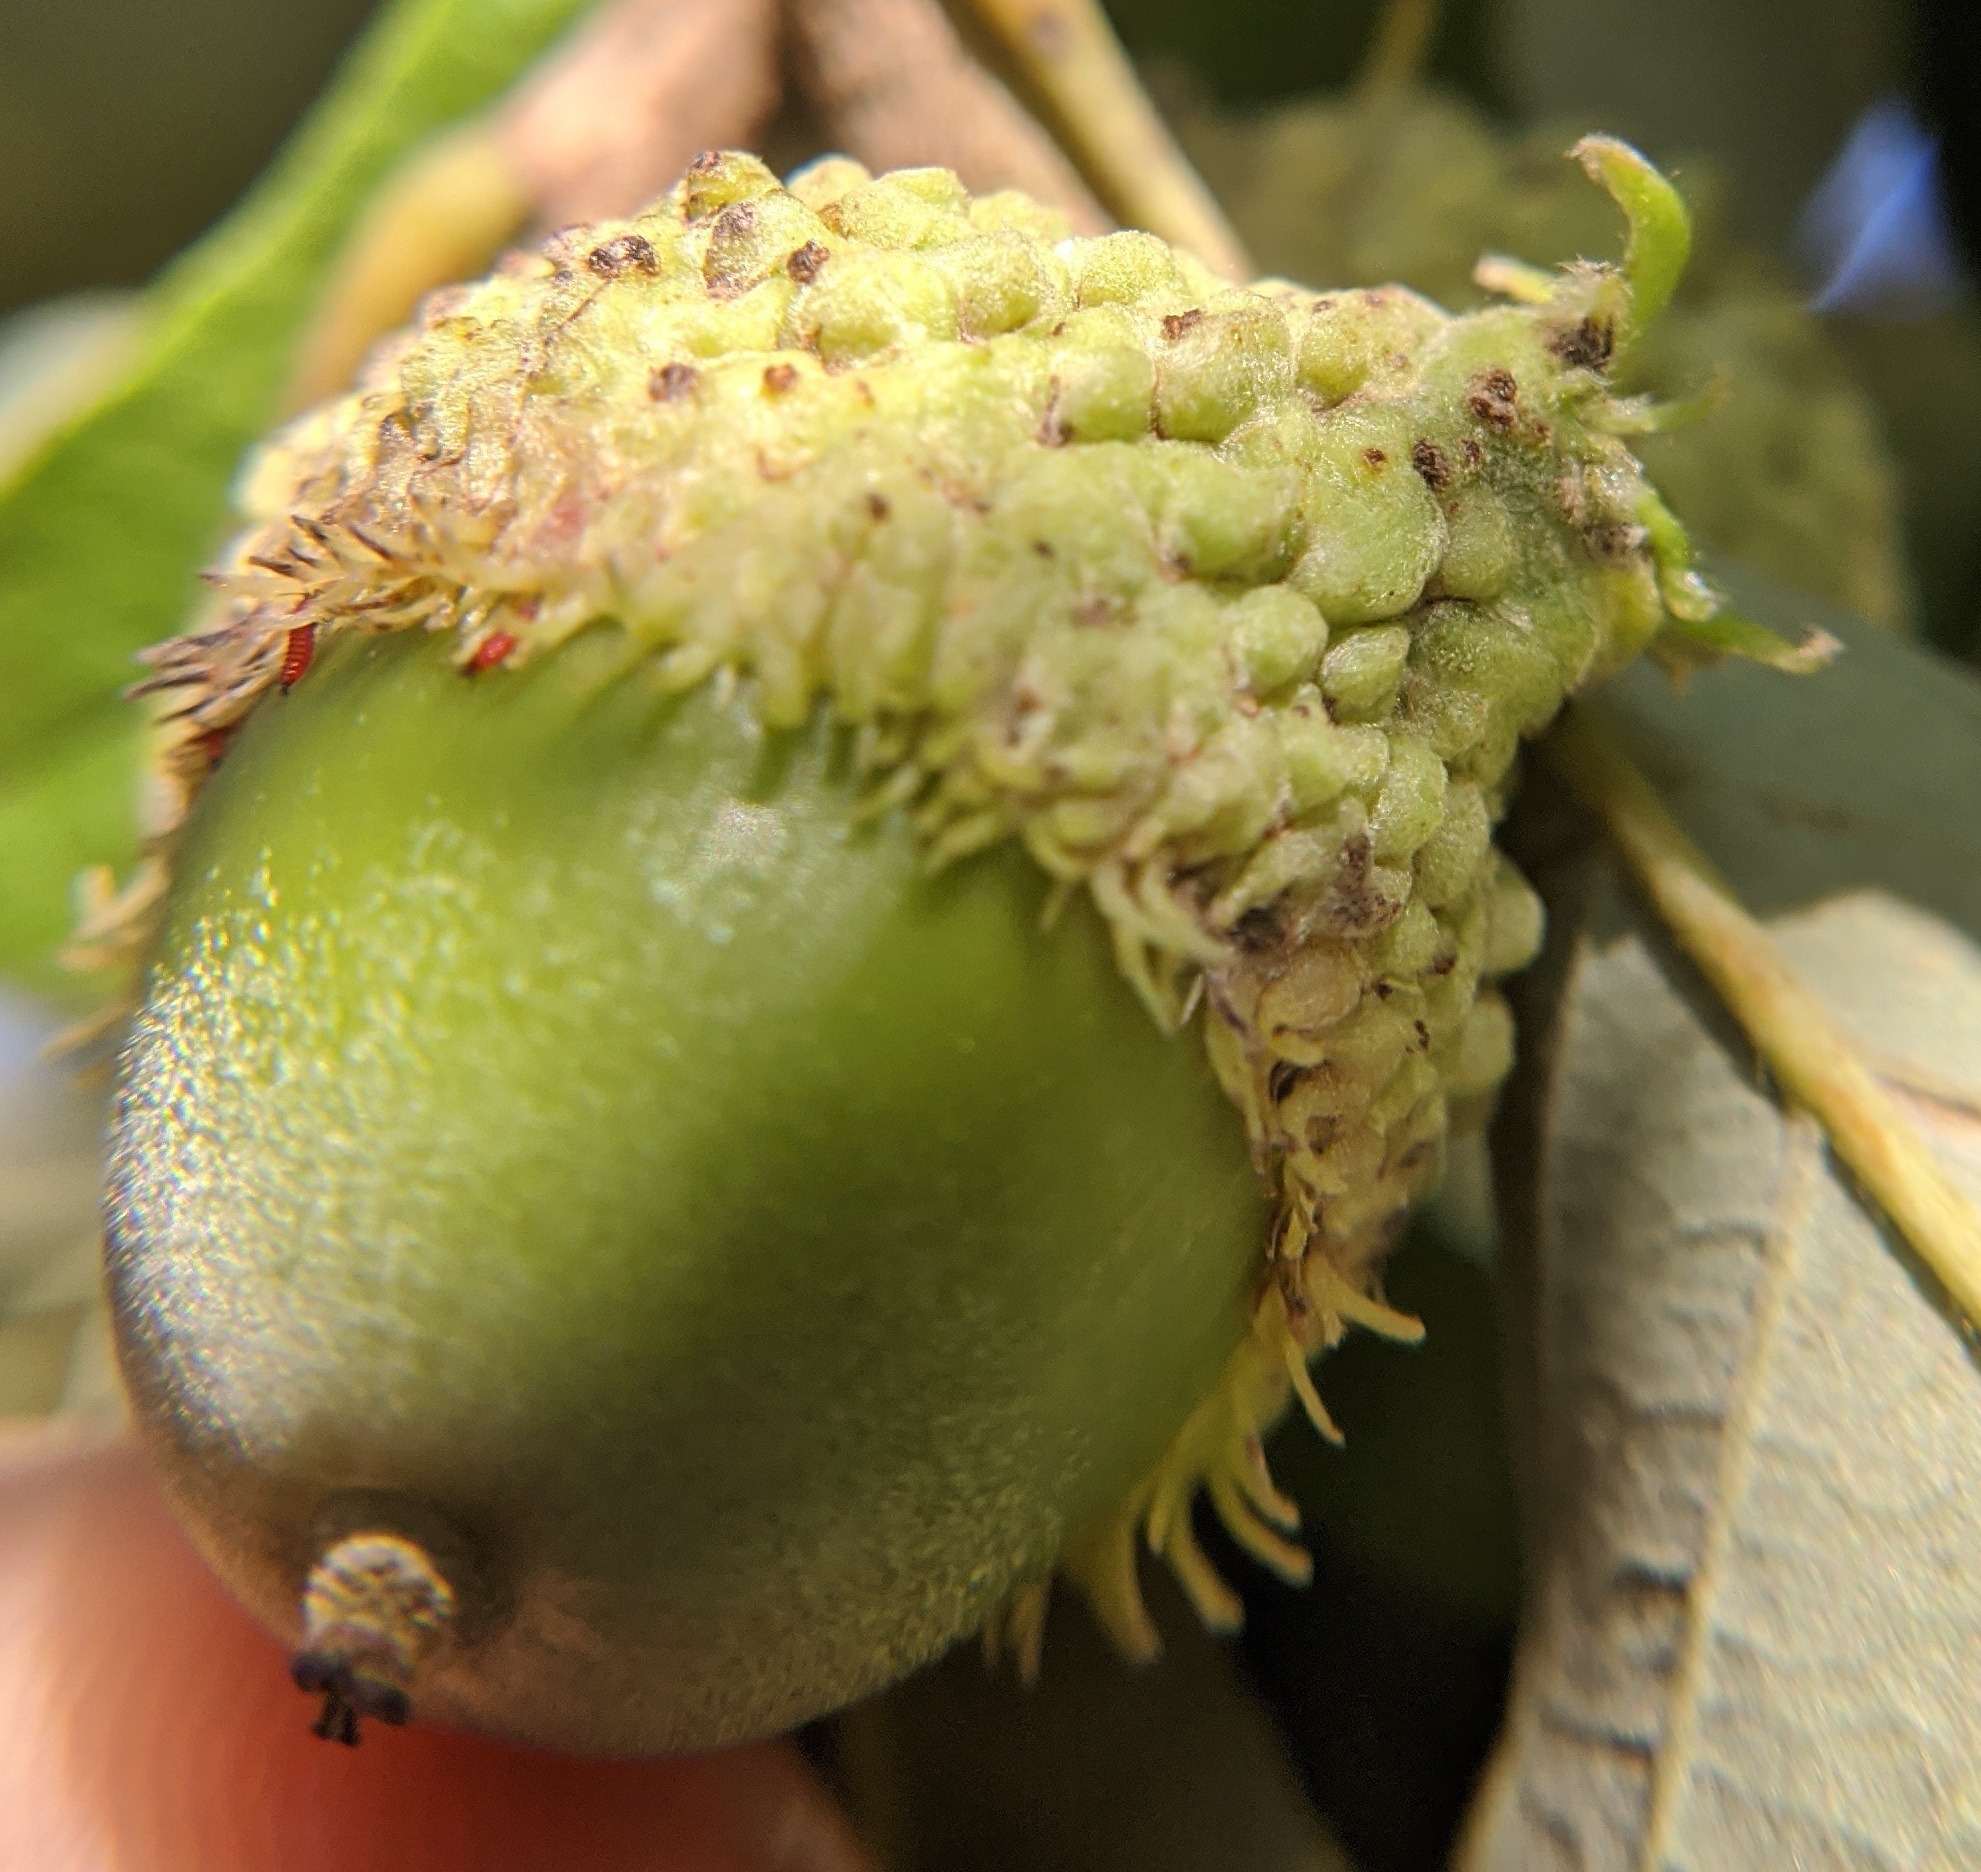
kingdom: Animalia
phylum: Arthropoda
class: Insecta
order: Hymenoptera
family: Cynipidae
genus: Andricus
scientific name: Andricus
